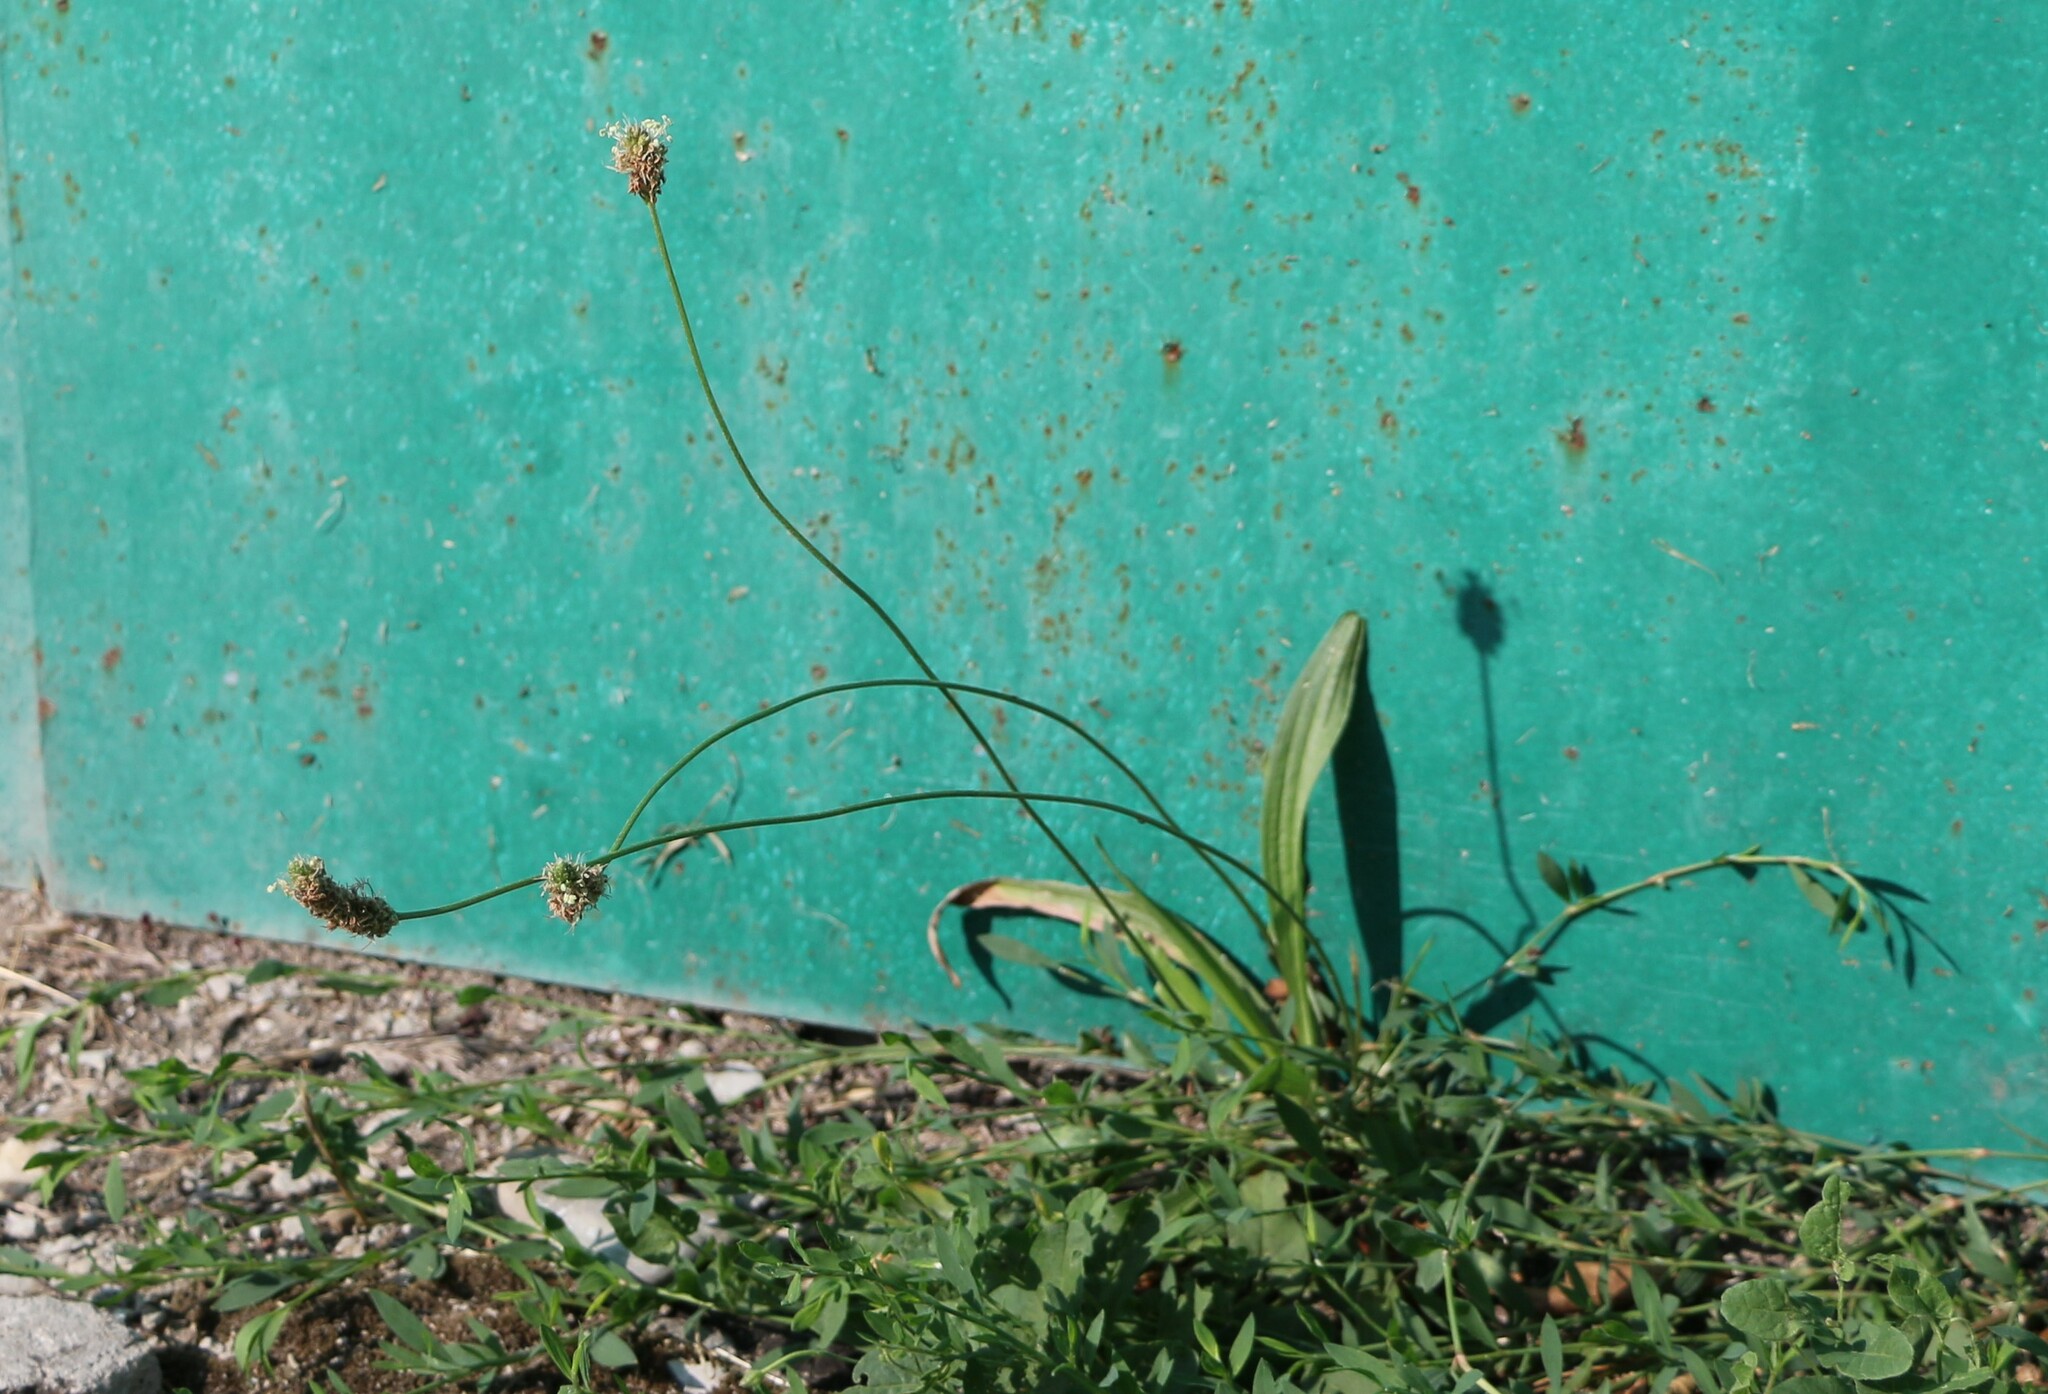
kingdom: Plantae
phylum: Tracheophyta
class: Magnoliopsida
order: Lamiales
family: Plantaginaceae
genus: Plantago
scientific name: Plantago lanceolata
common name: Ribwort plantain
